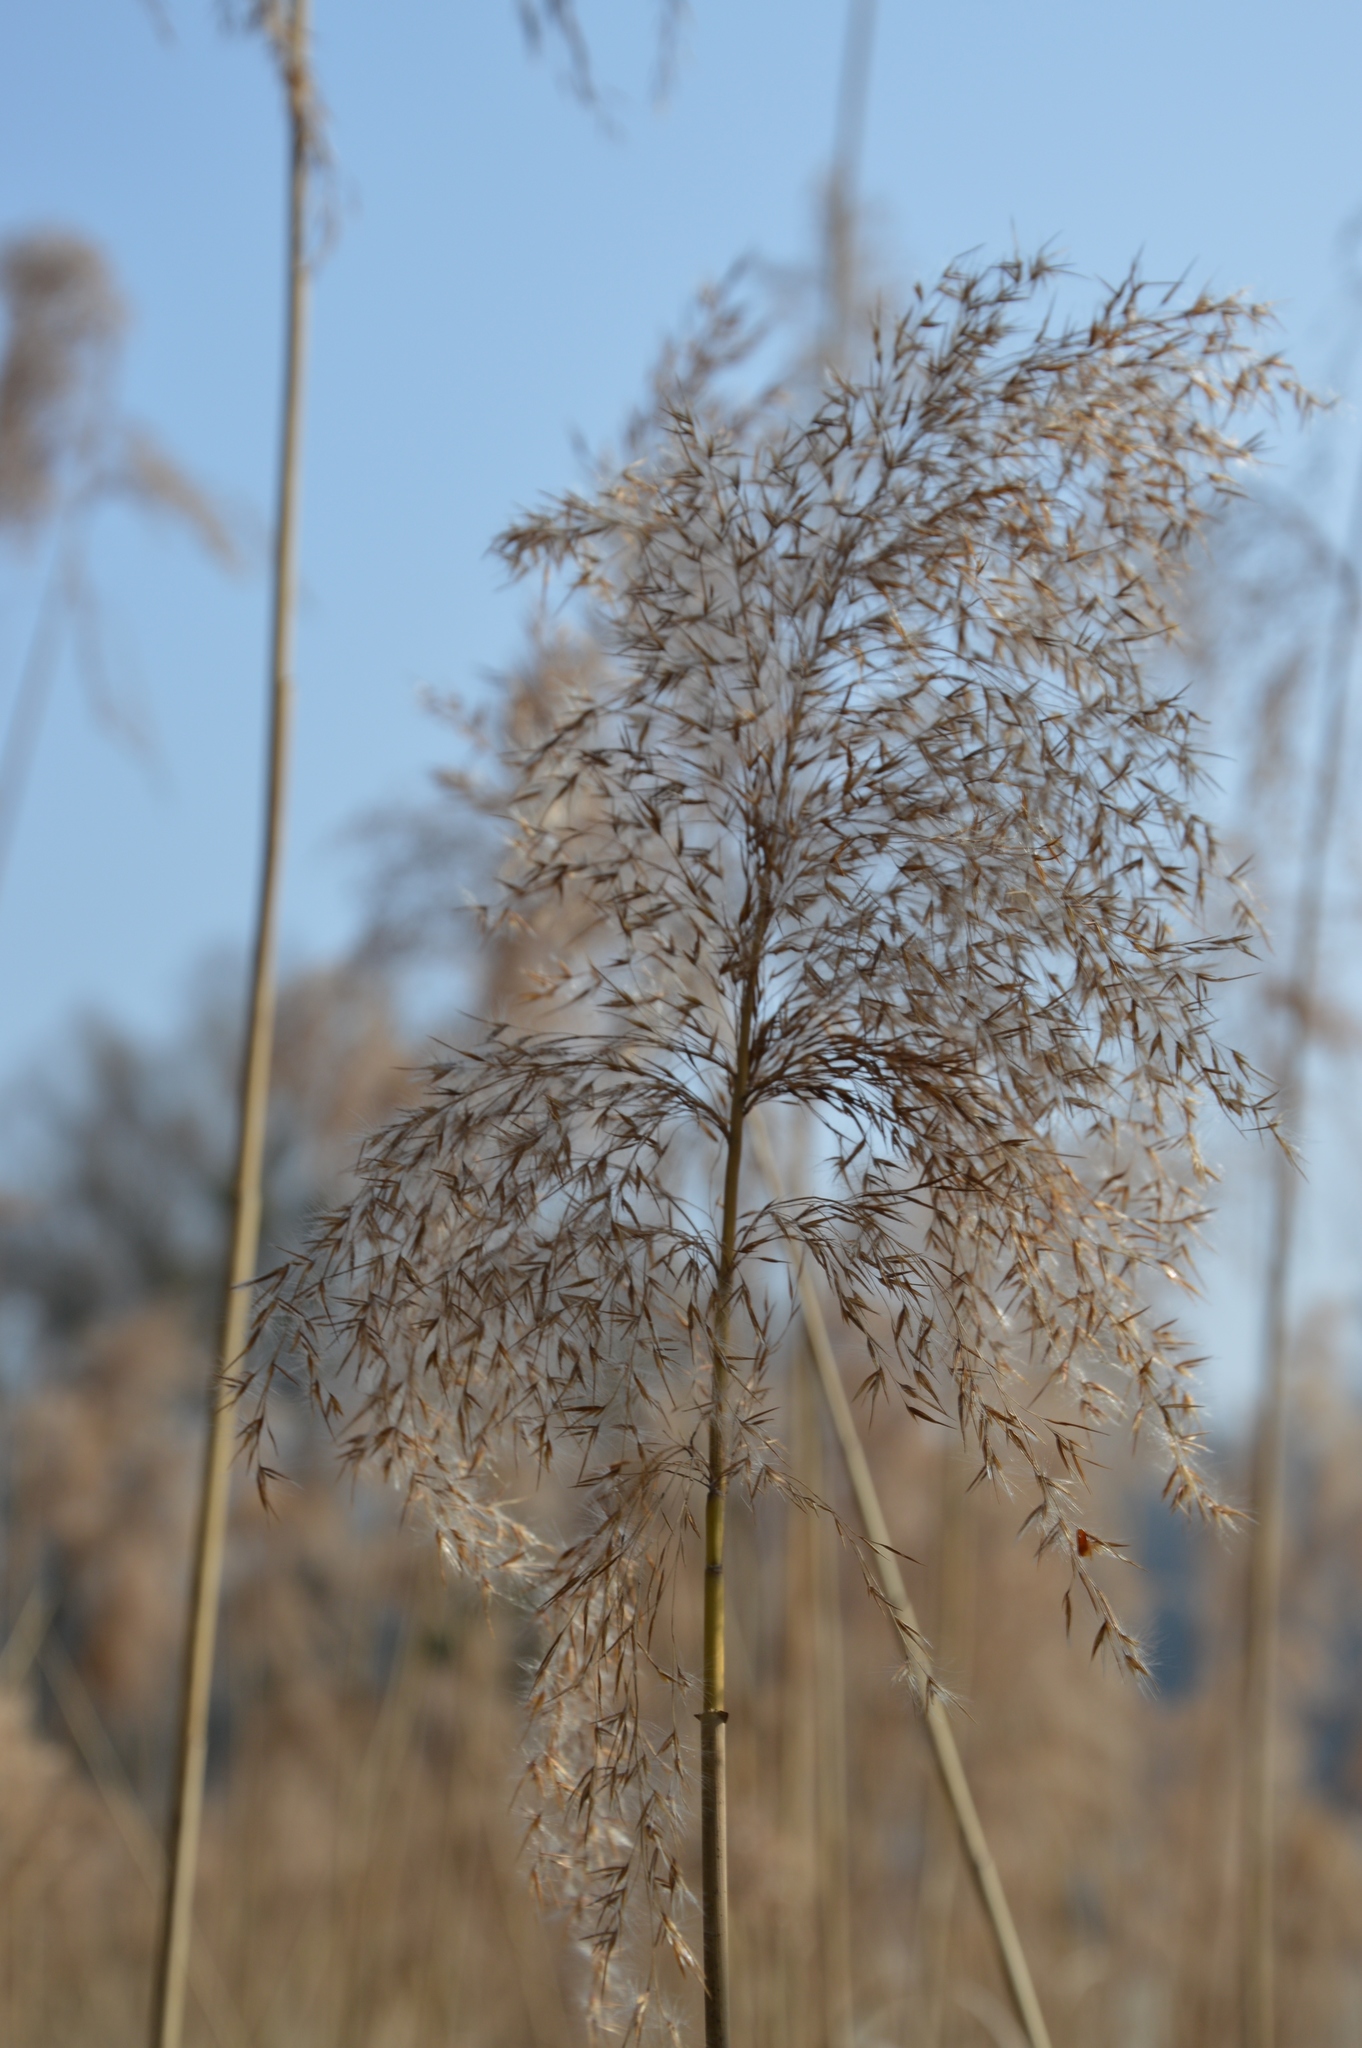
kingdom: Plantae
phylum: Tracheophyta
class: Liliopsida
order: Poales
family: Poaceae
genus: Phragmites
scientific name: Phragmites australis
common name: Common reed
